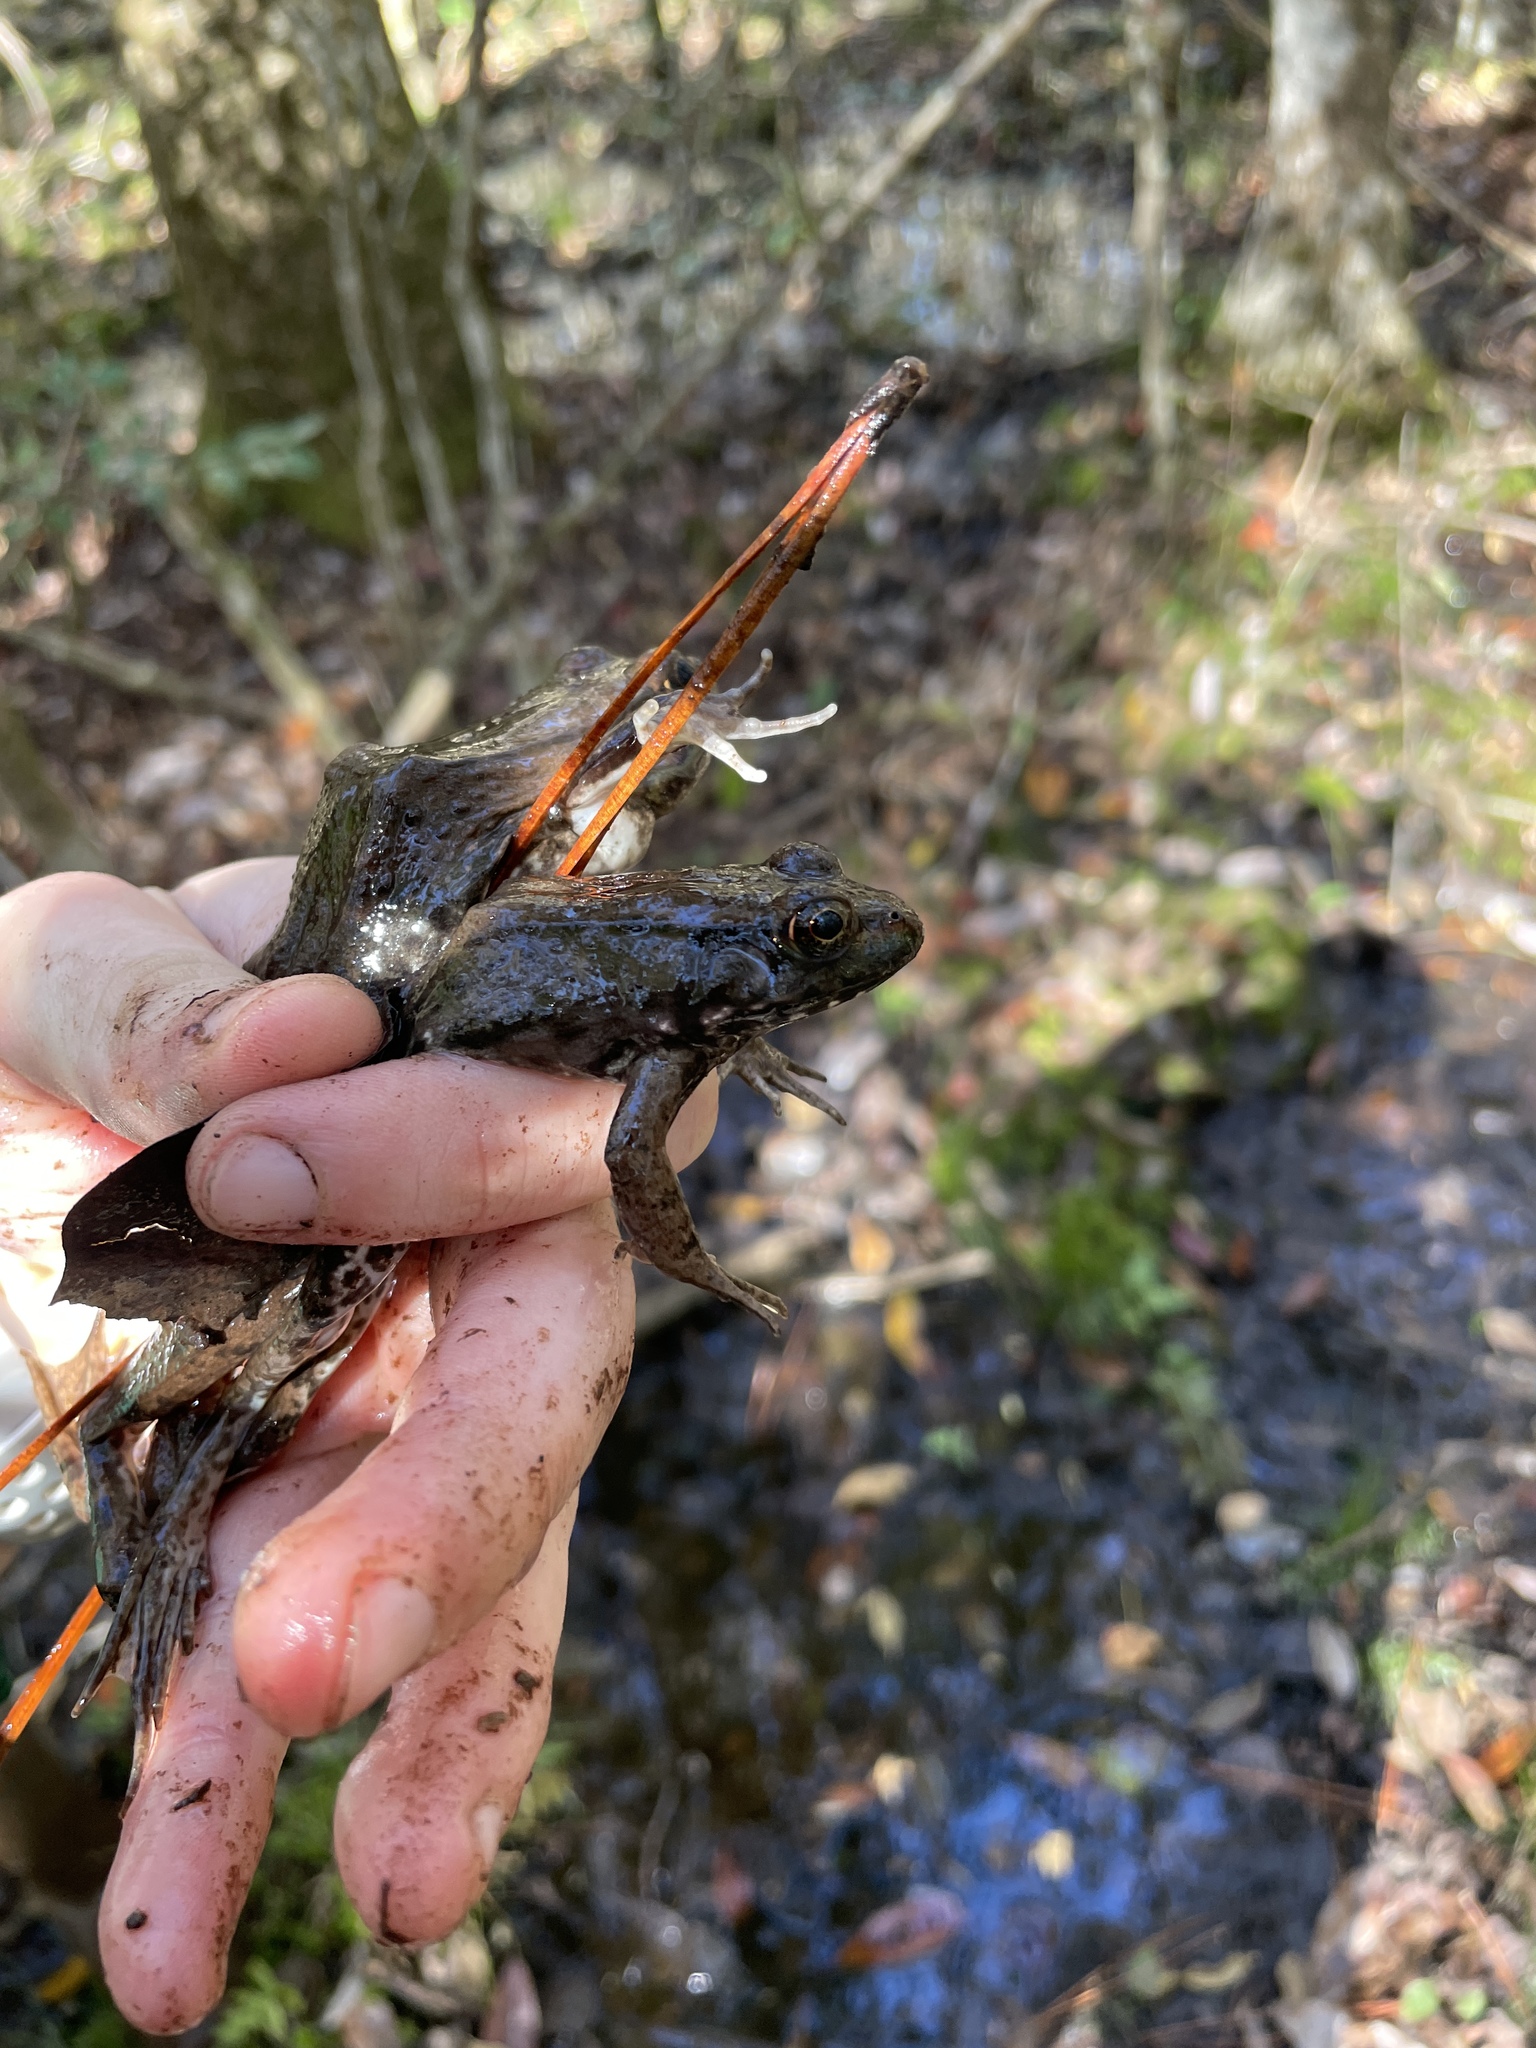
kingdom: Animalia
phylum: Chordata
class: Amphibia
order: Anura
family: Ranidae
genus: Lithobates
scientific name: Lithobates clamitans
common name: Green frog
